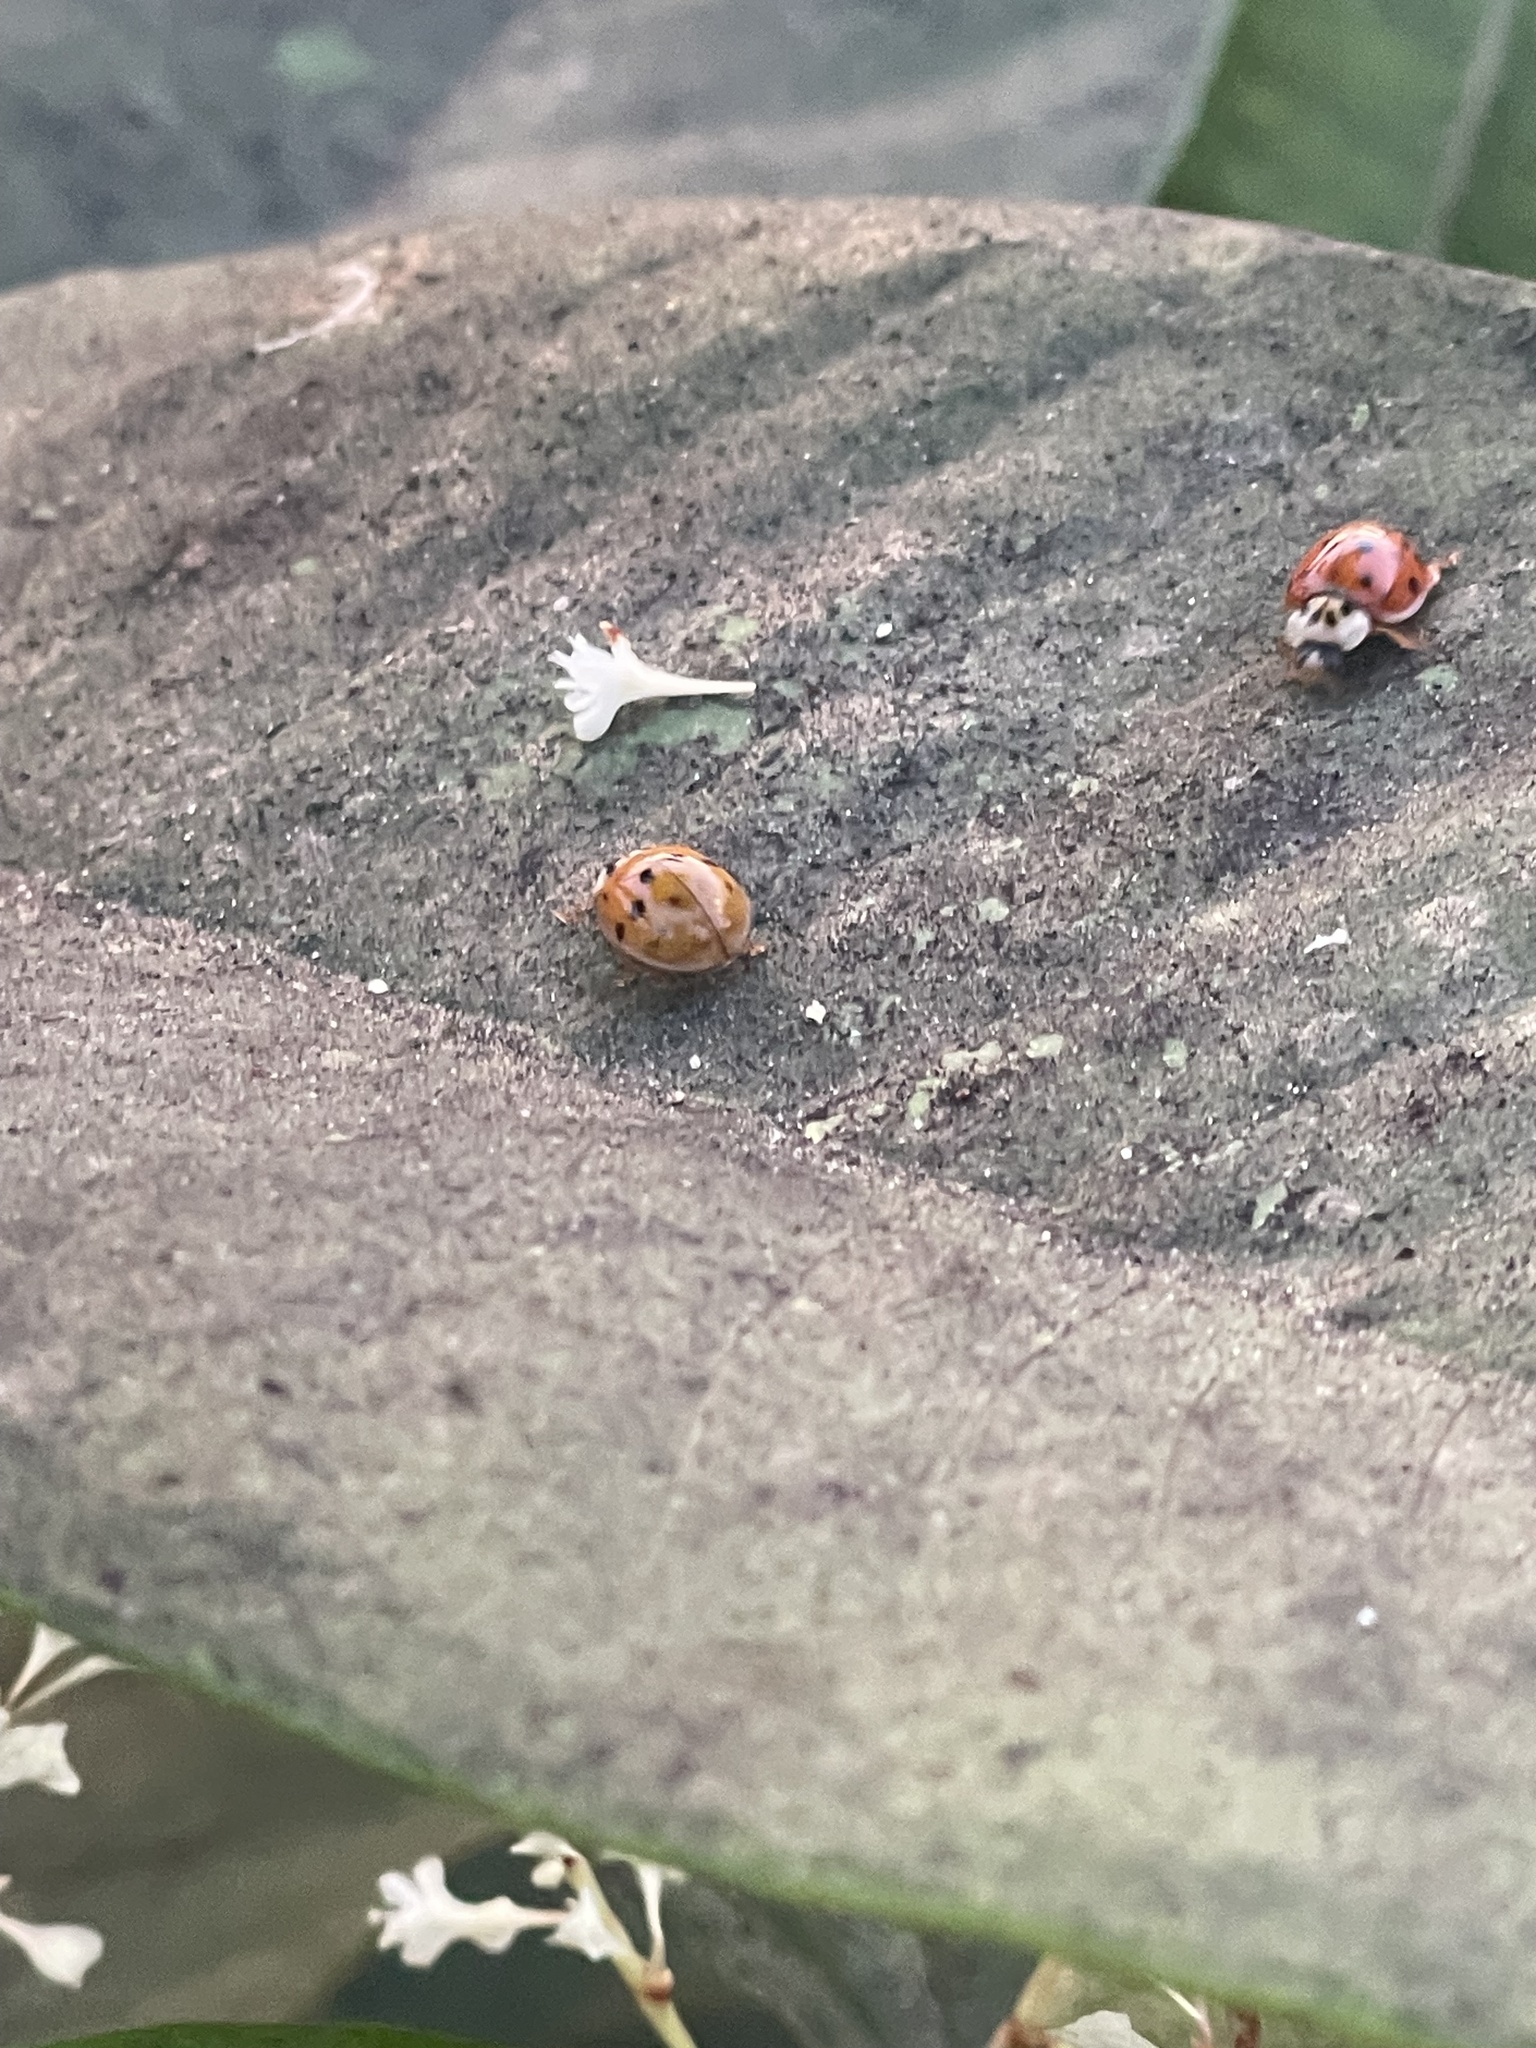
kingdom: Animalia
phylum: Arthropoda
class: Insecta
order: Coleoptera
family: Coccinellidae
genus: Harmonia
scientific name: Harmonia axyridis
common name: Harlequin ladybird
